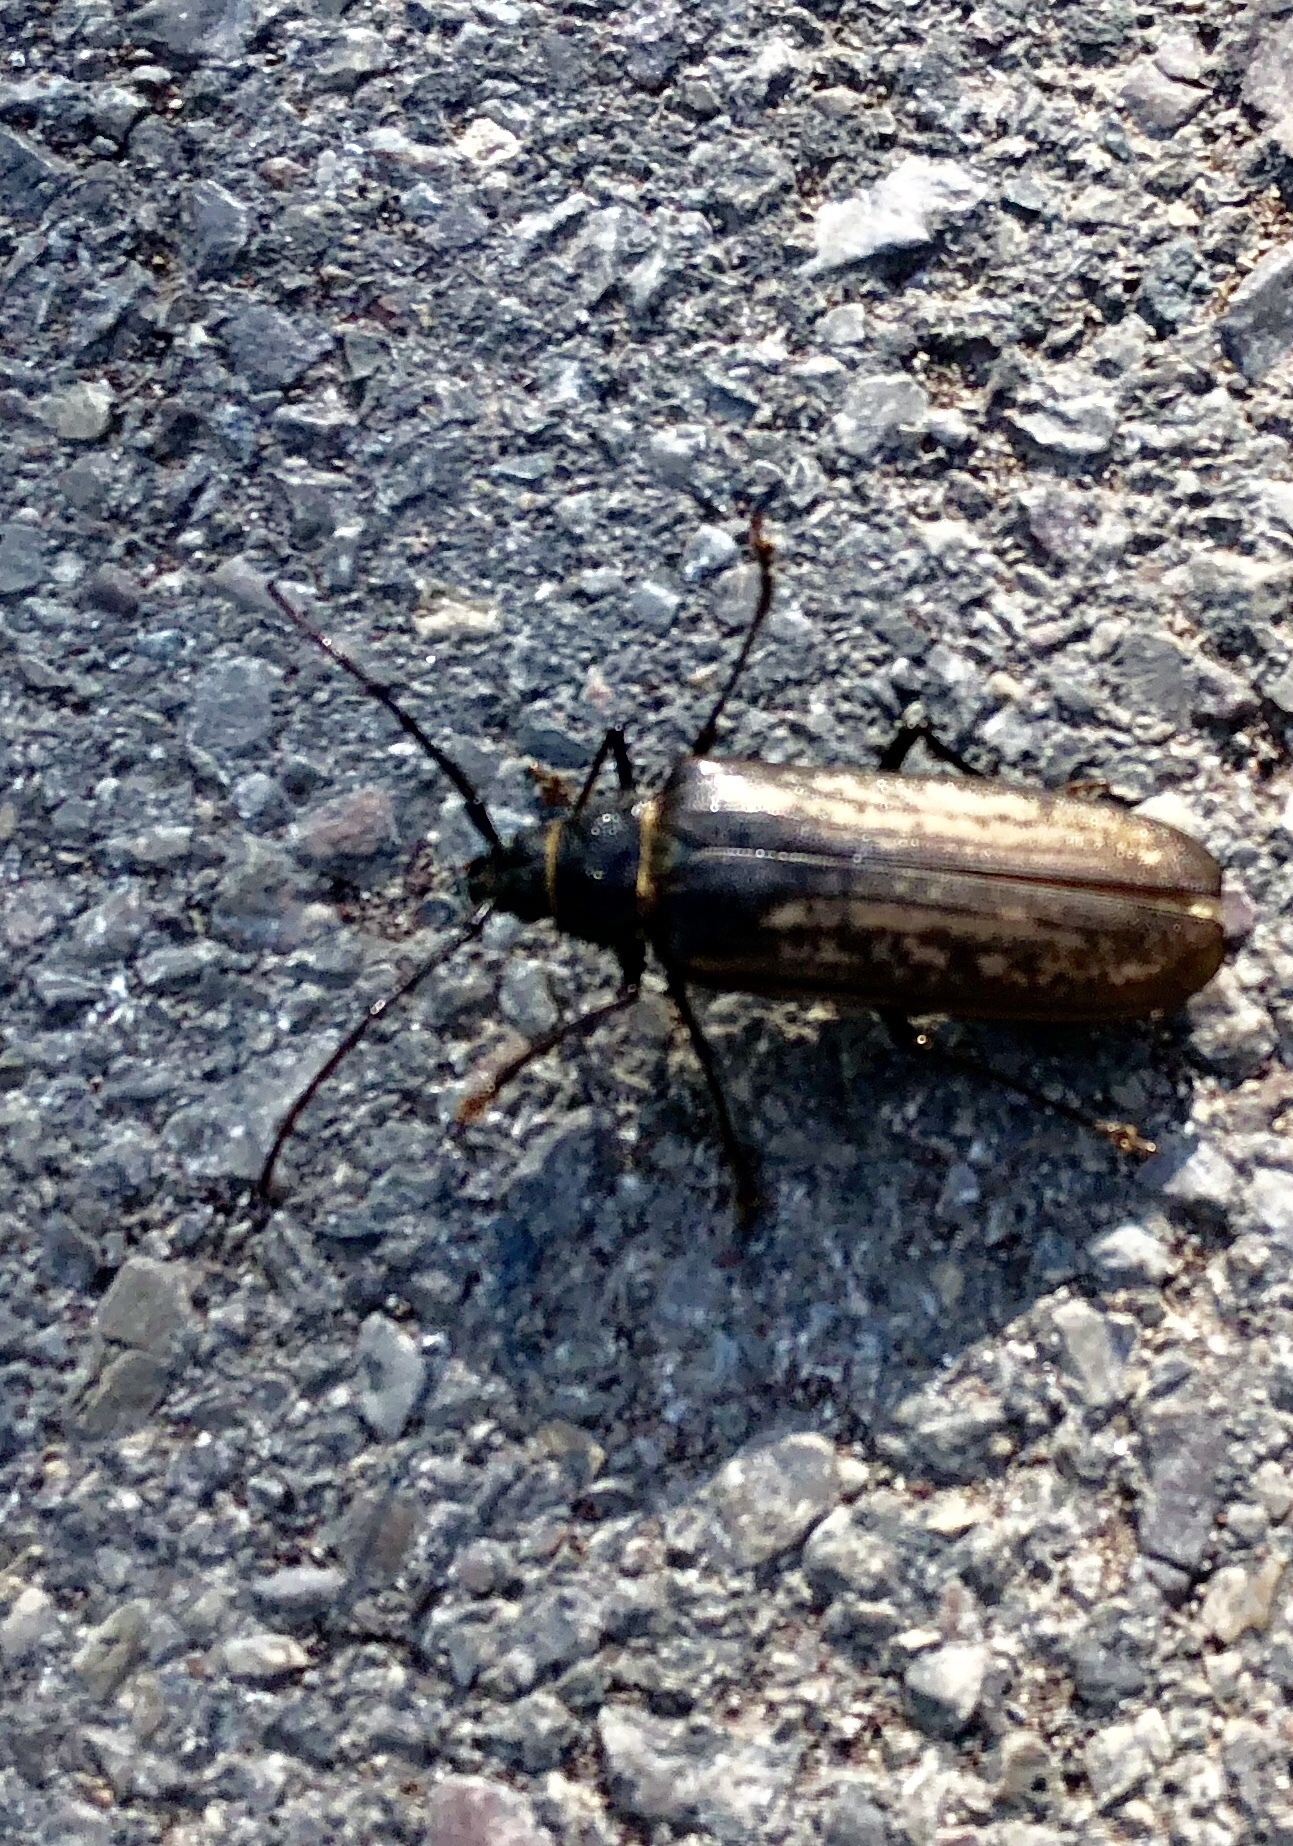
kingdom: Animalia
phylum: Arthropoda
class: Insecta
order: Coleoptera
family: Cerambycidae
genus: Trichocnemis
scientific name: Trichocnemis spiculatus
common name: Long-horned beetle
